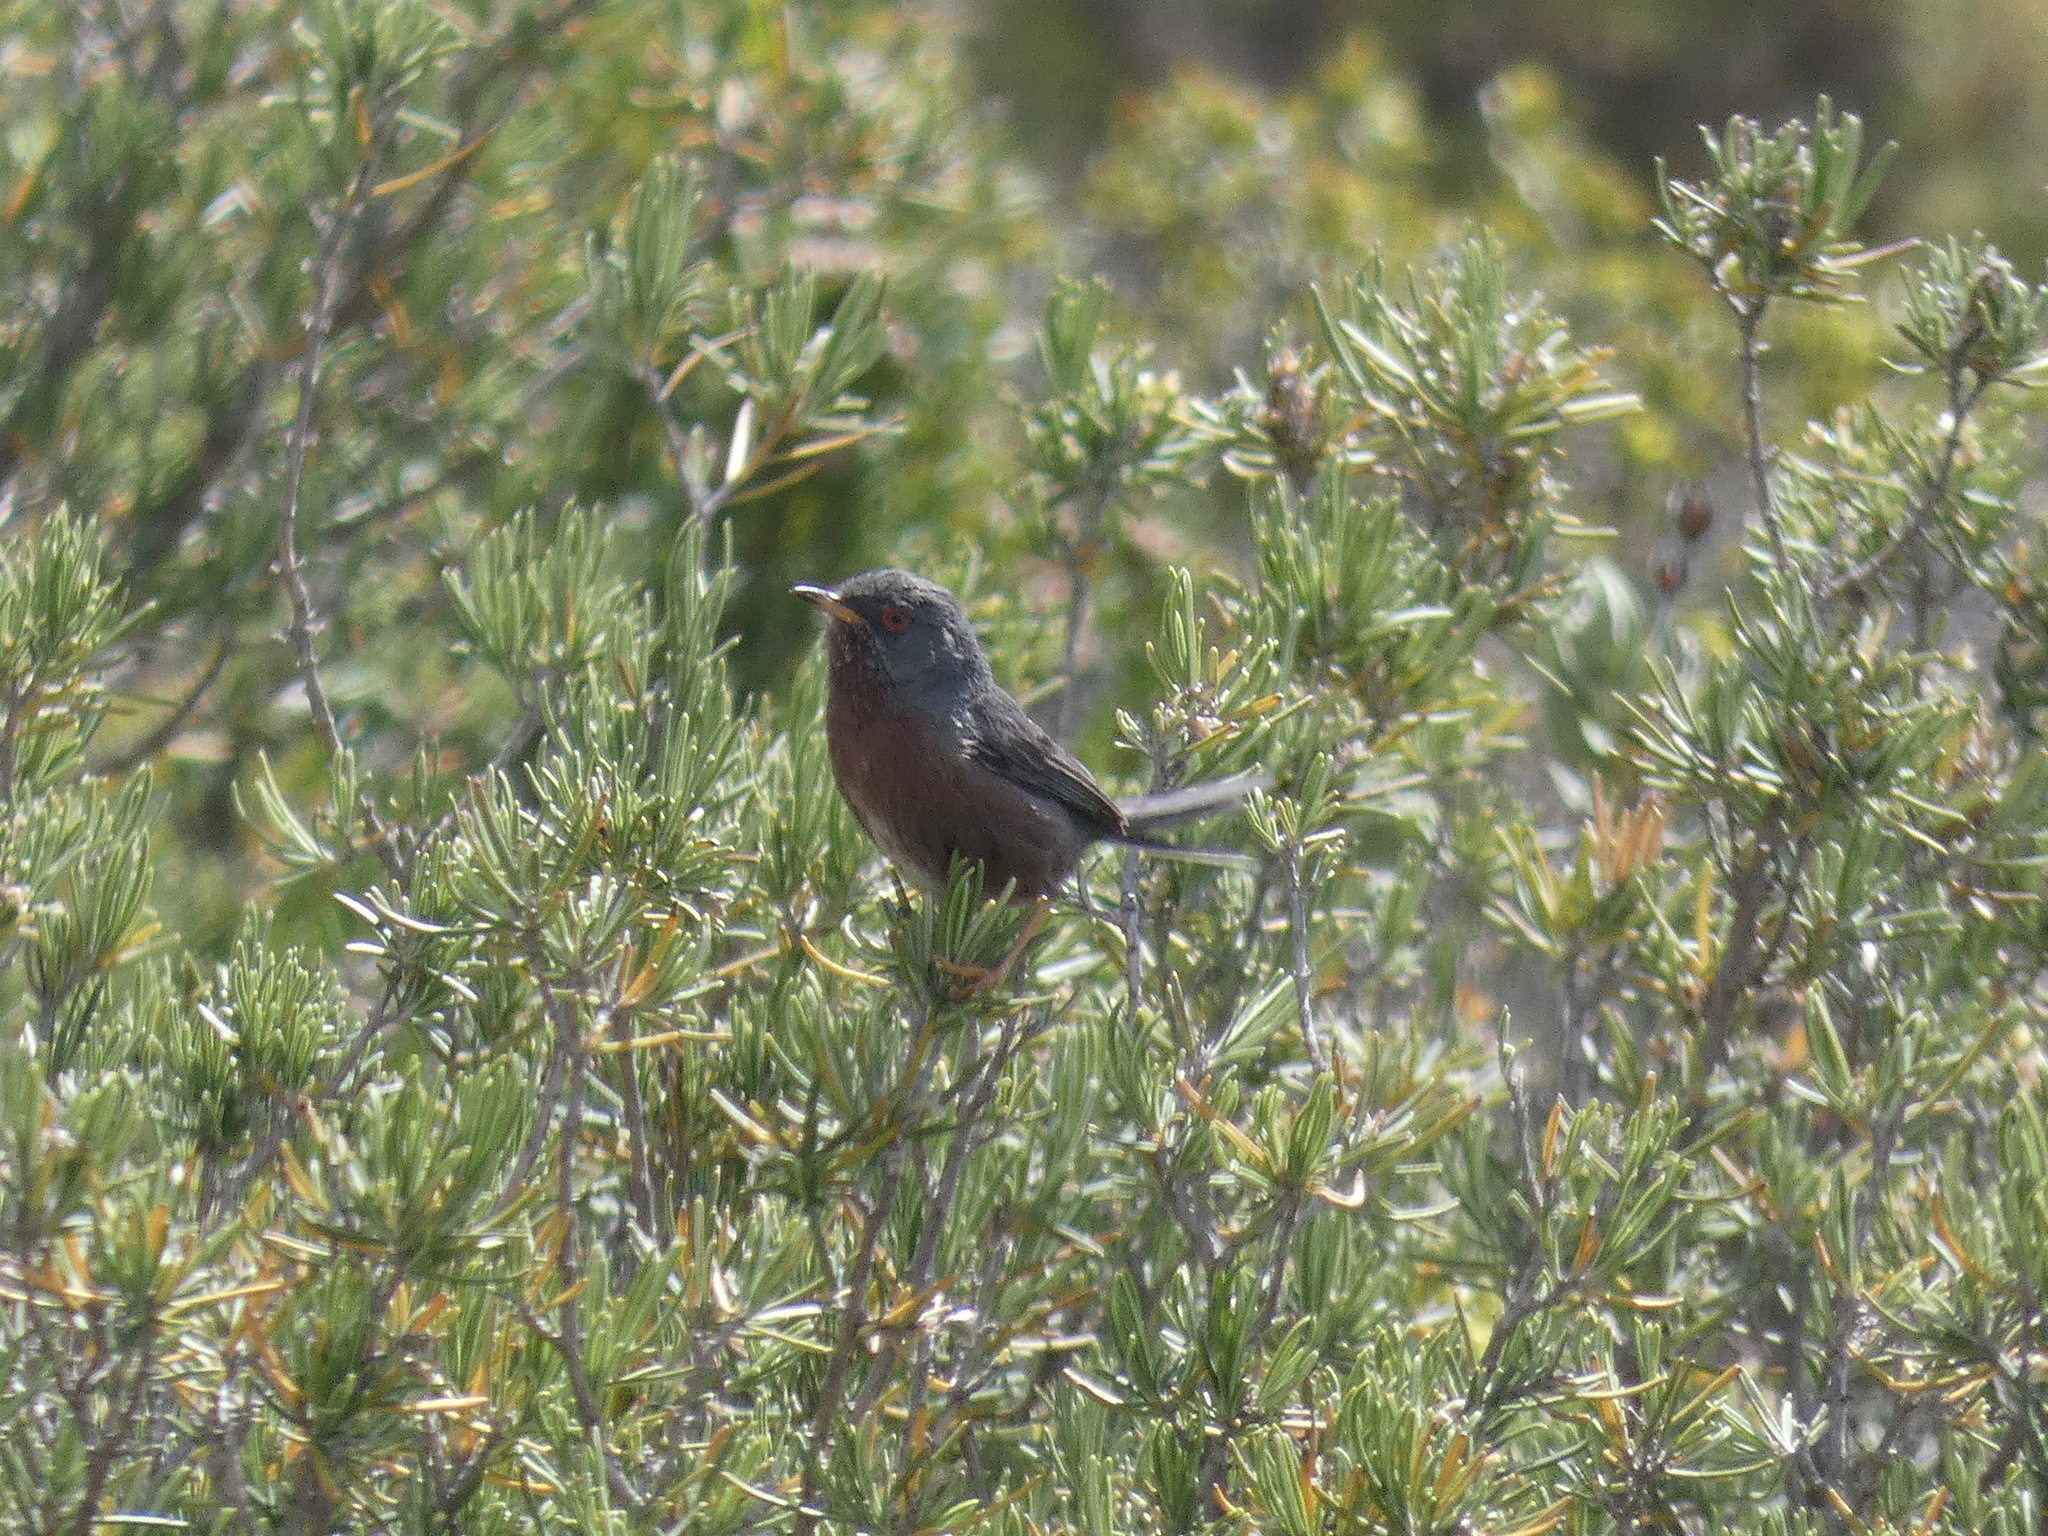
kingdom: Animalia
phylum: Chordata
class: Aves
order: Passeriformes
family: Sylviidae
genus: Sylvia
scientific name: Sylvia undata
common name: Dartford warbler
